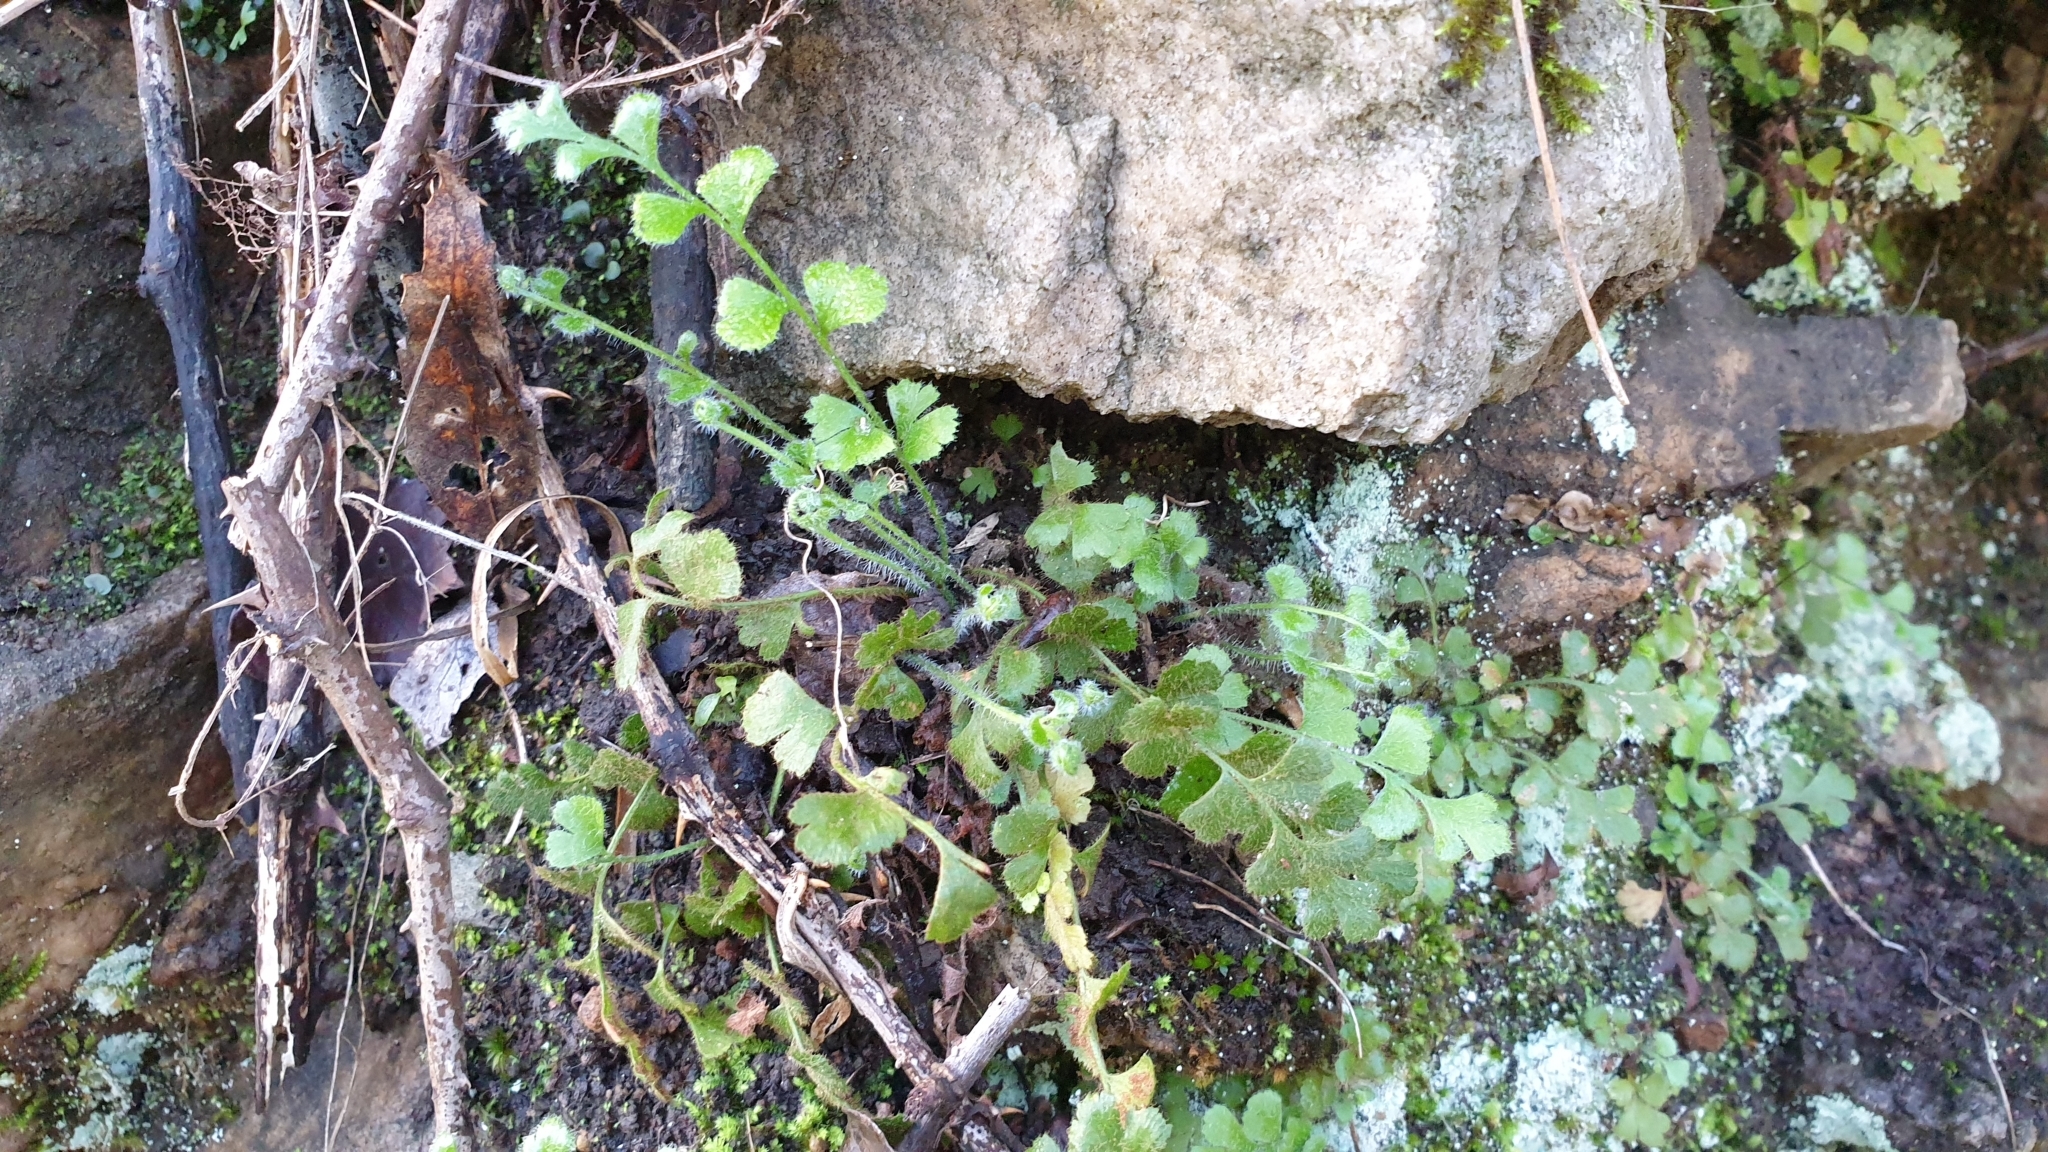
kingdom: Plantae
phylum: Tracheophyta
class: Polypodiopsida
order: Polypodiales
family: Aspleniaceae
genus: Asplenium
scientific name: Asplenium subglandulosum
